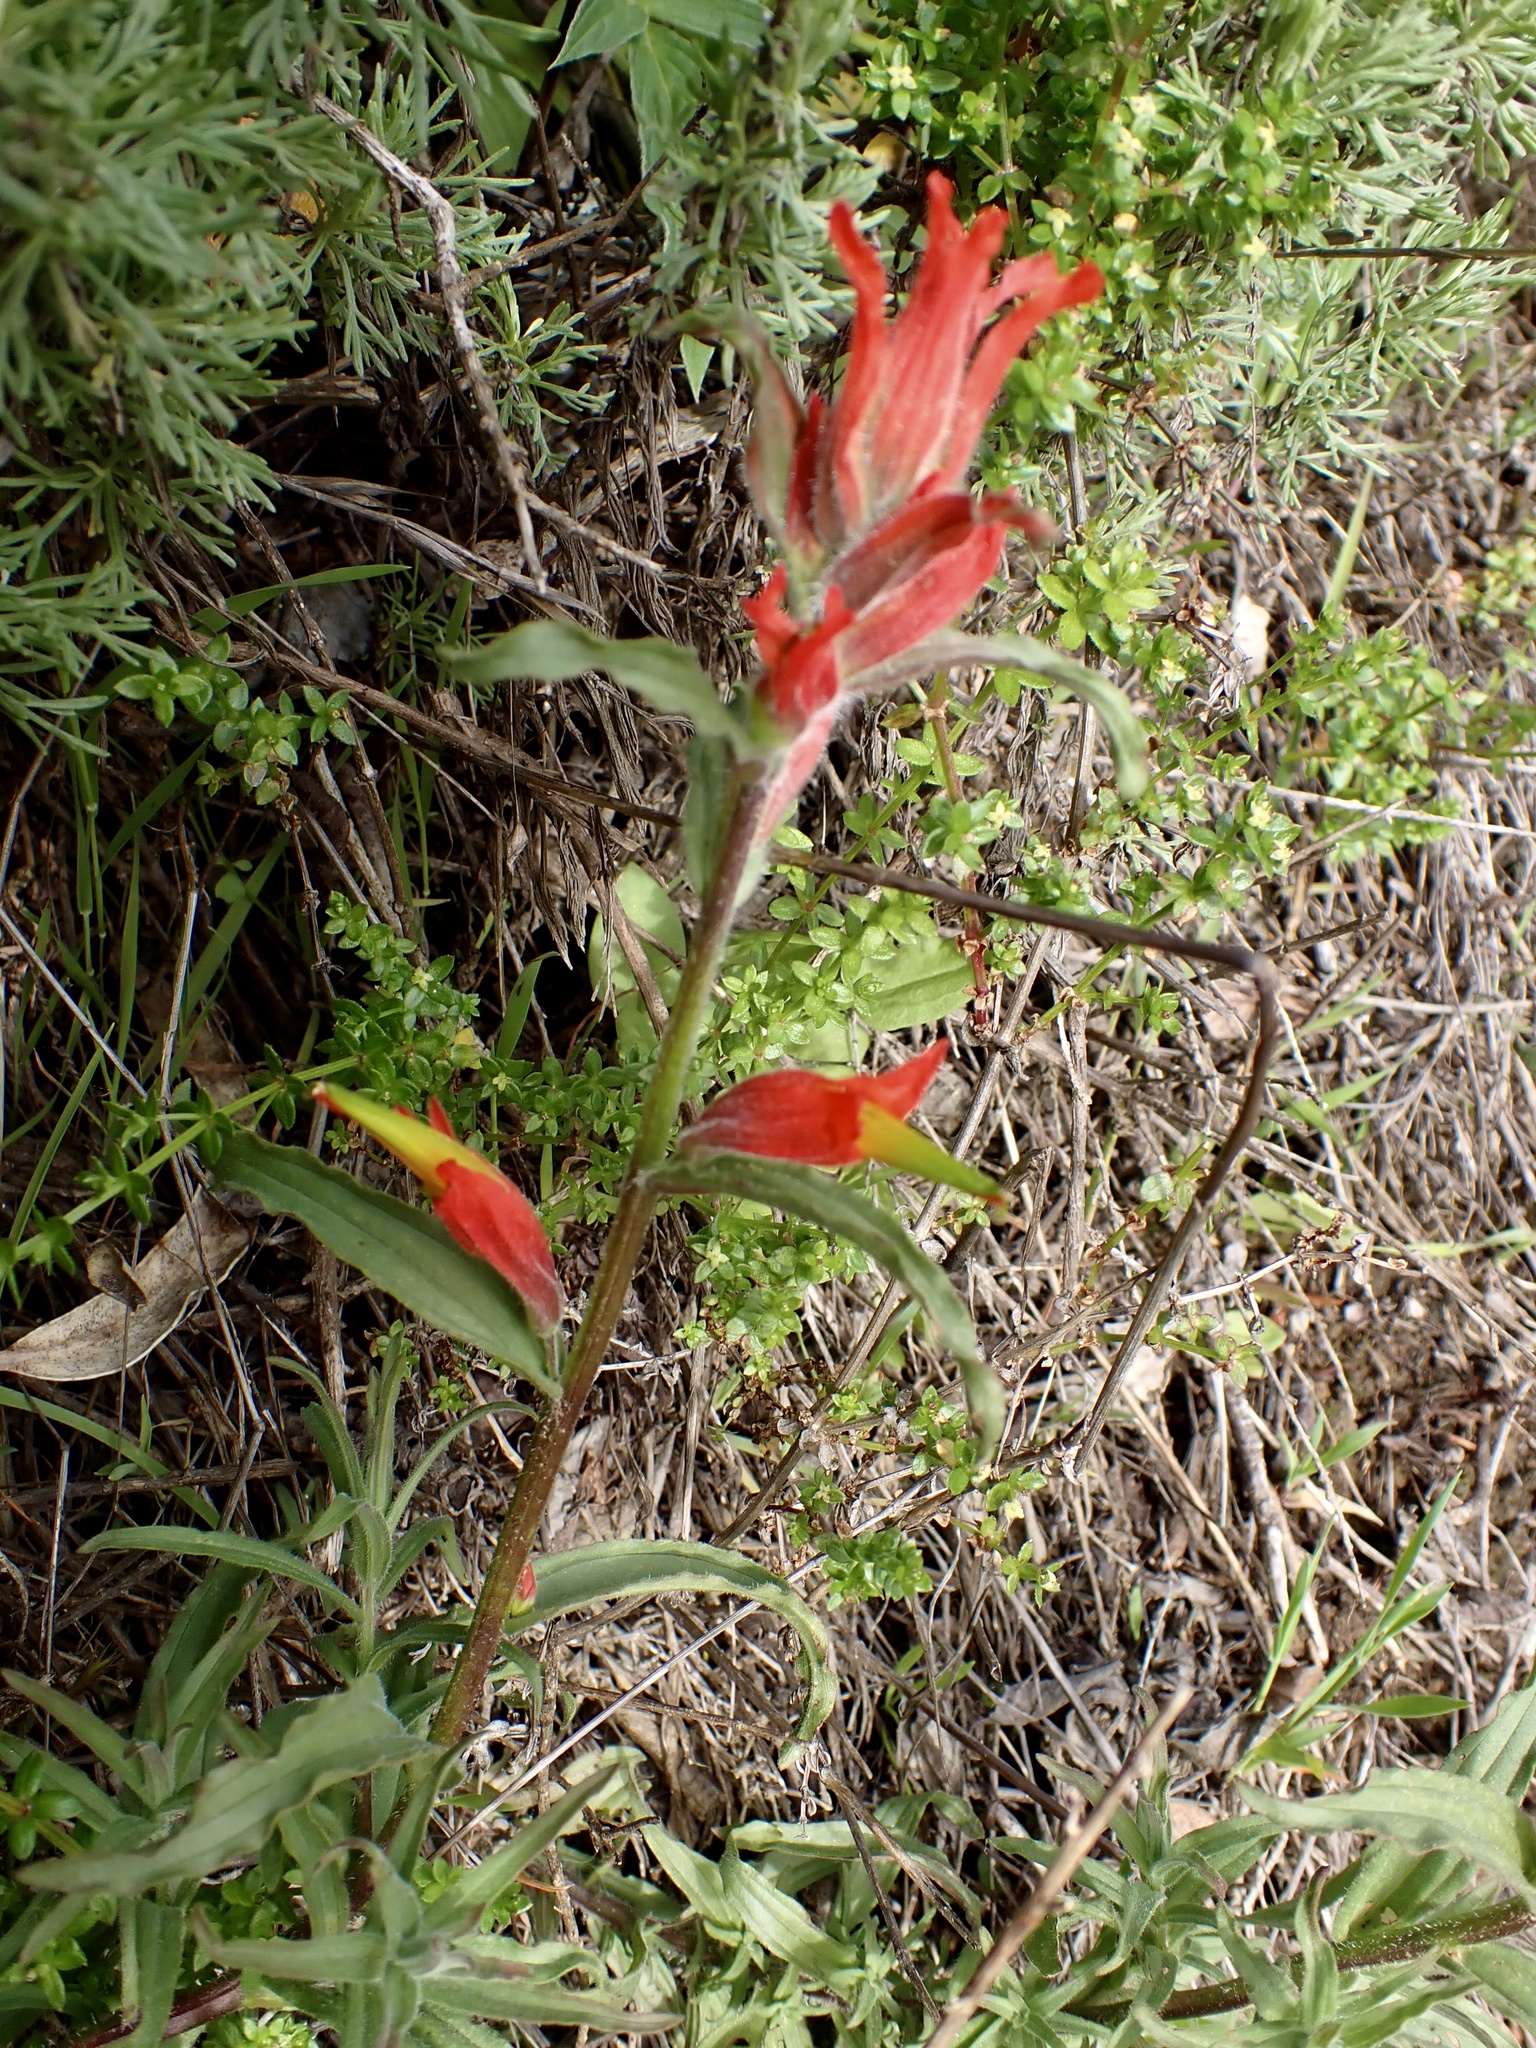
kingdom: Plantae
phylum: Tracheophyta
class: Magnoliopsida
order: Lamiales
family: Orobanchaceae
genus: Castilleja
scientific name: Castilleja subinclusa
